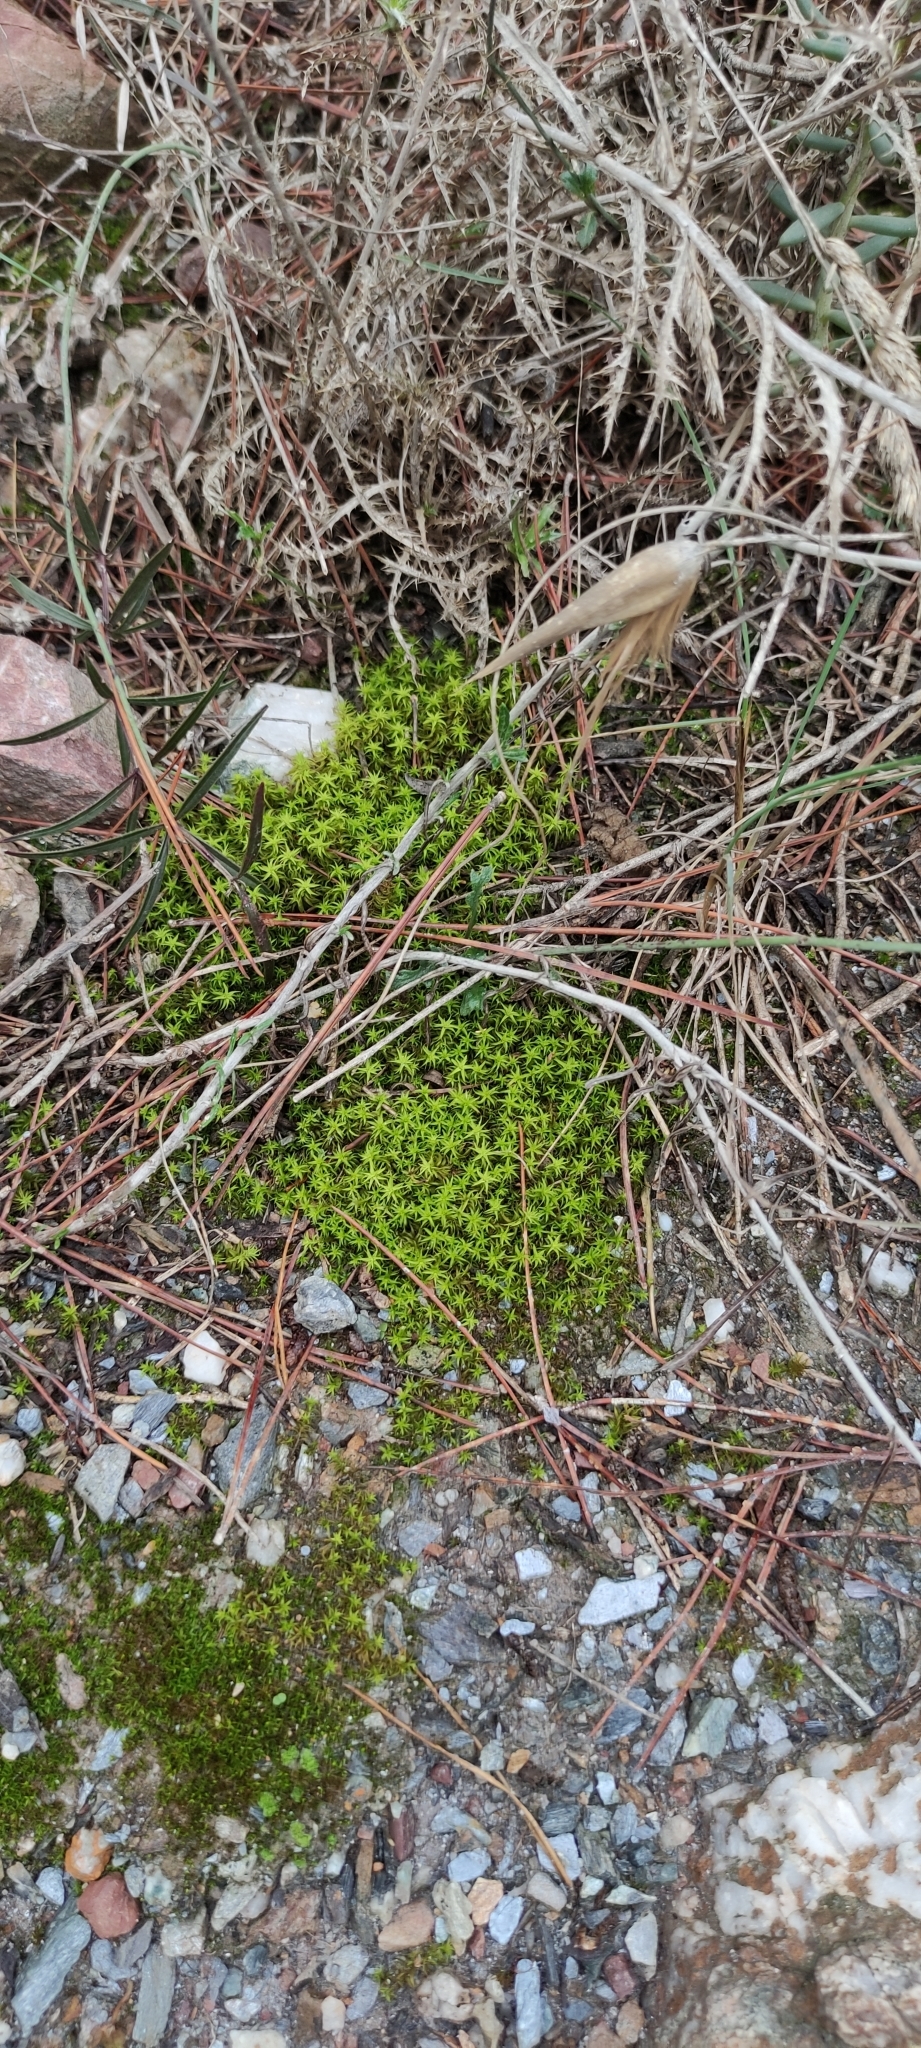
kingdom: Plantae
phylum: Bryophyta
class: Bryopsida
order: Pottiales
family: Pottiaceae
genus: Pleurochaete
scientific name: Pleurochaete squarrosa
